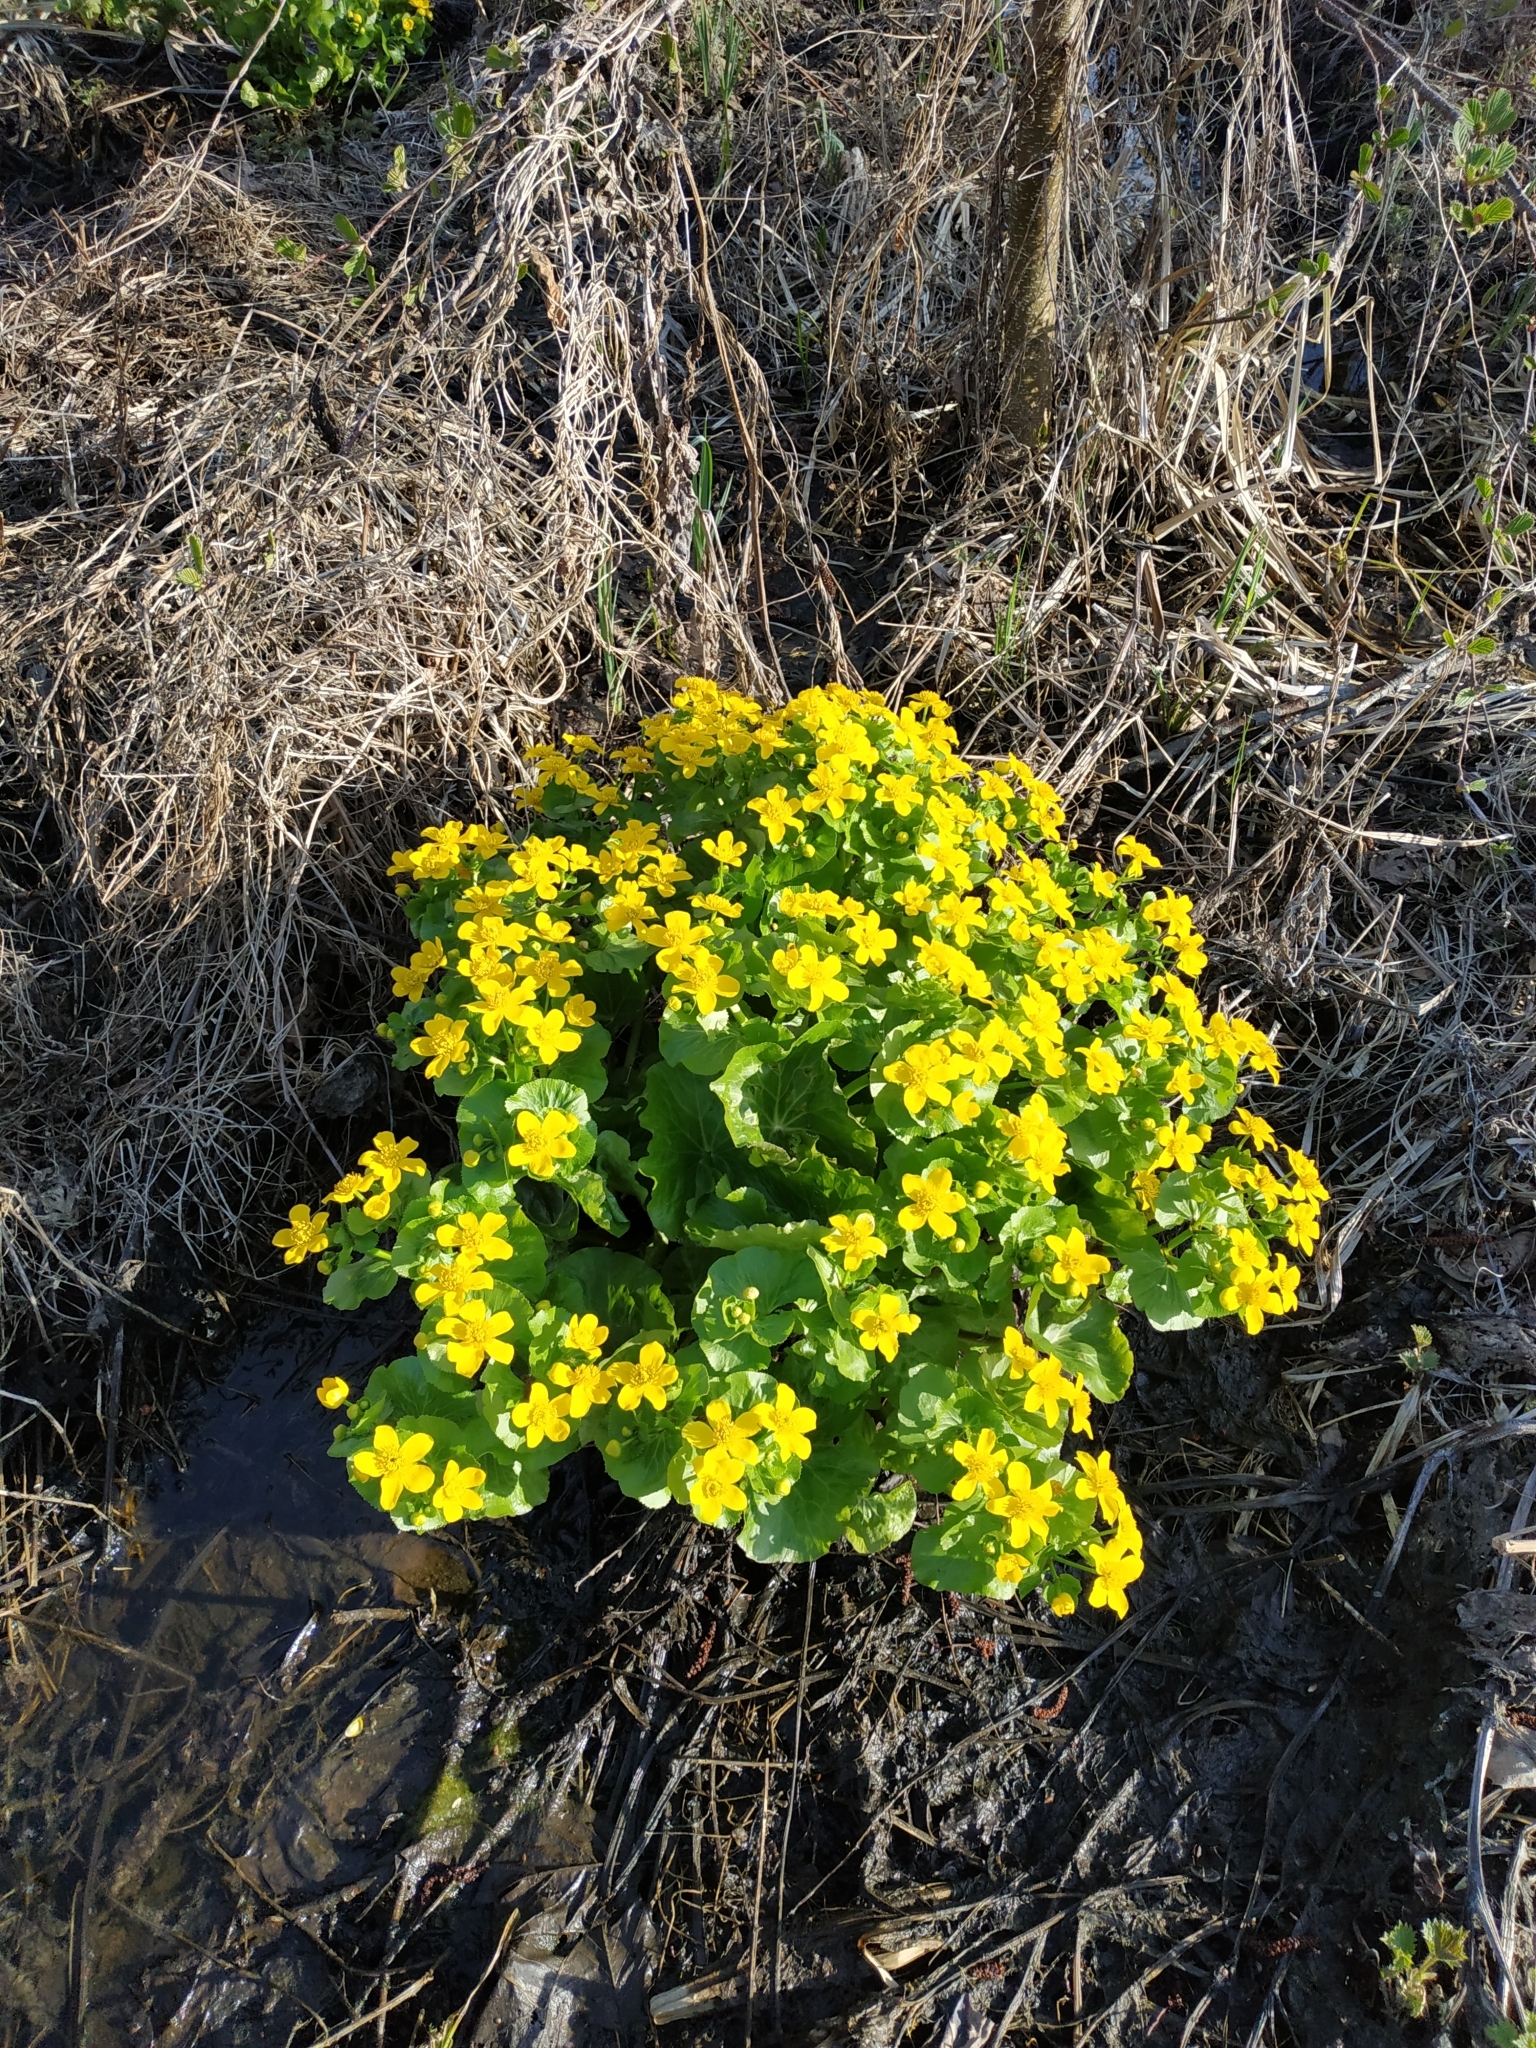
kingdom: Plantae
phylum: Tracheophyta
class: Magnoliopsida
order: Ranunculales
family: Ranunculaceae
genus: Caltha
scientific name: Caltha palustris
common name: Marsh marigold
